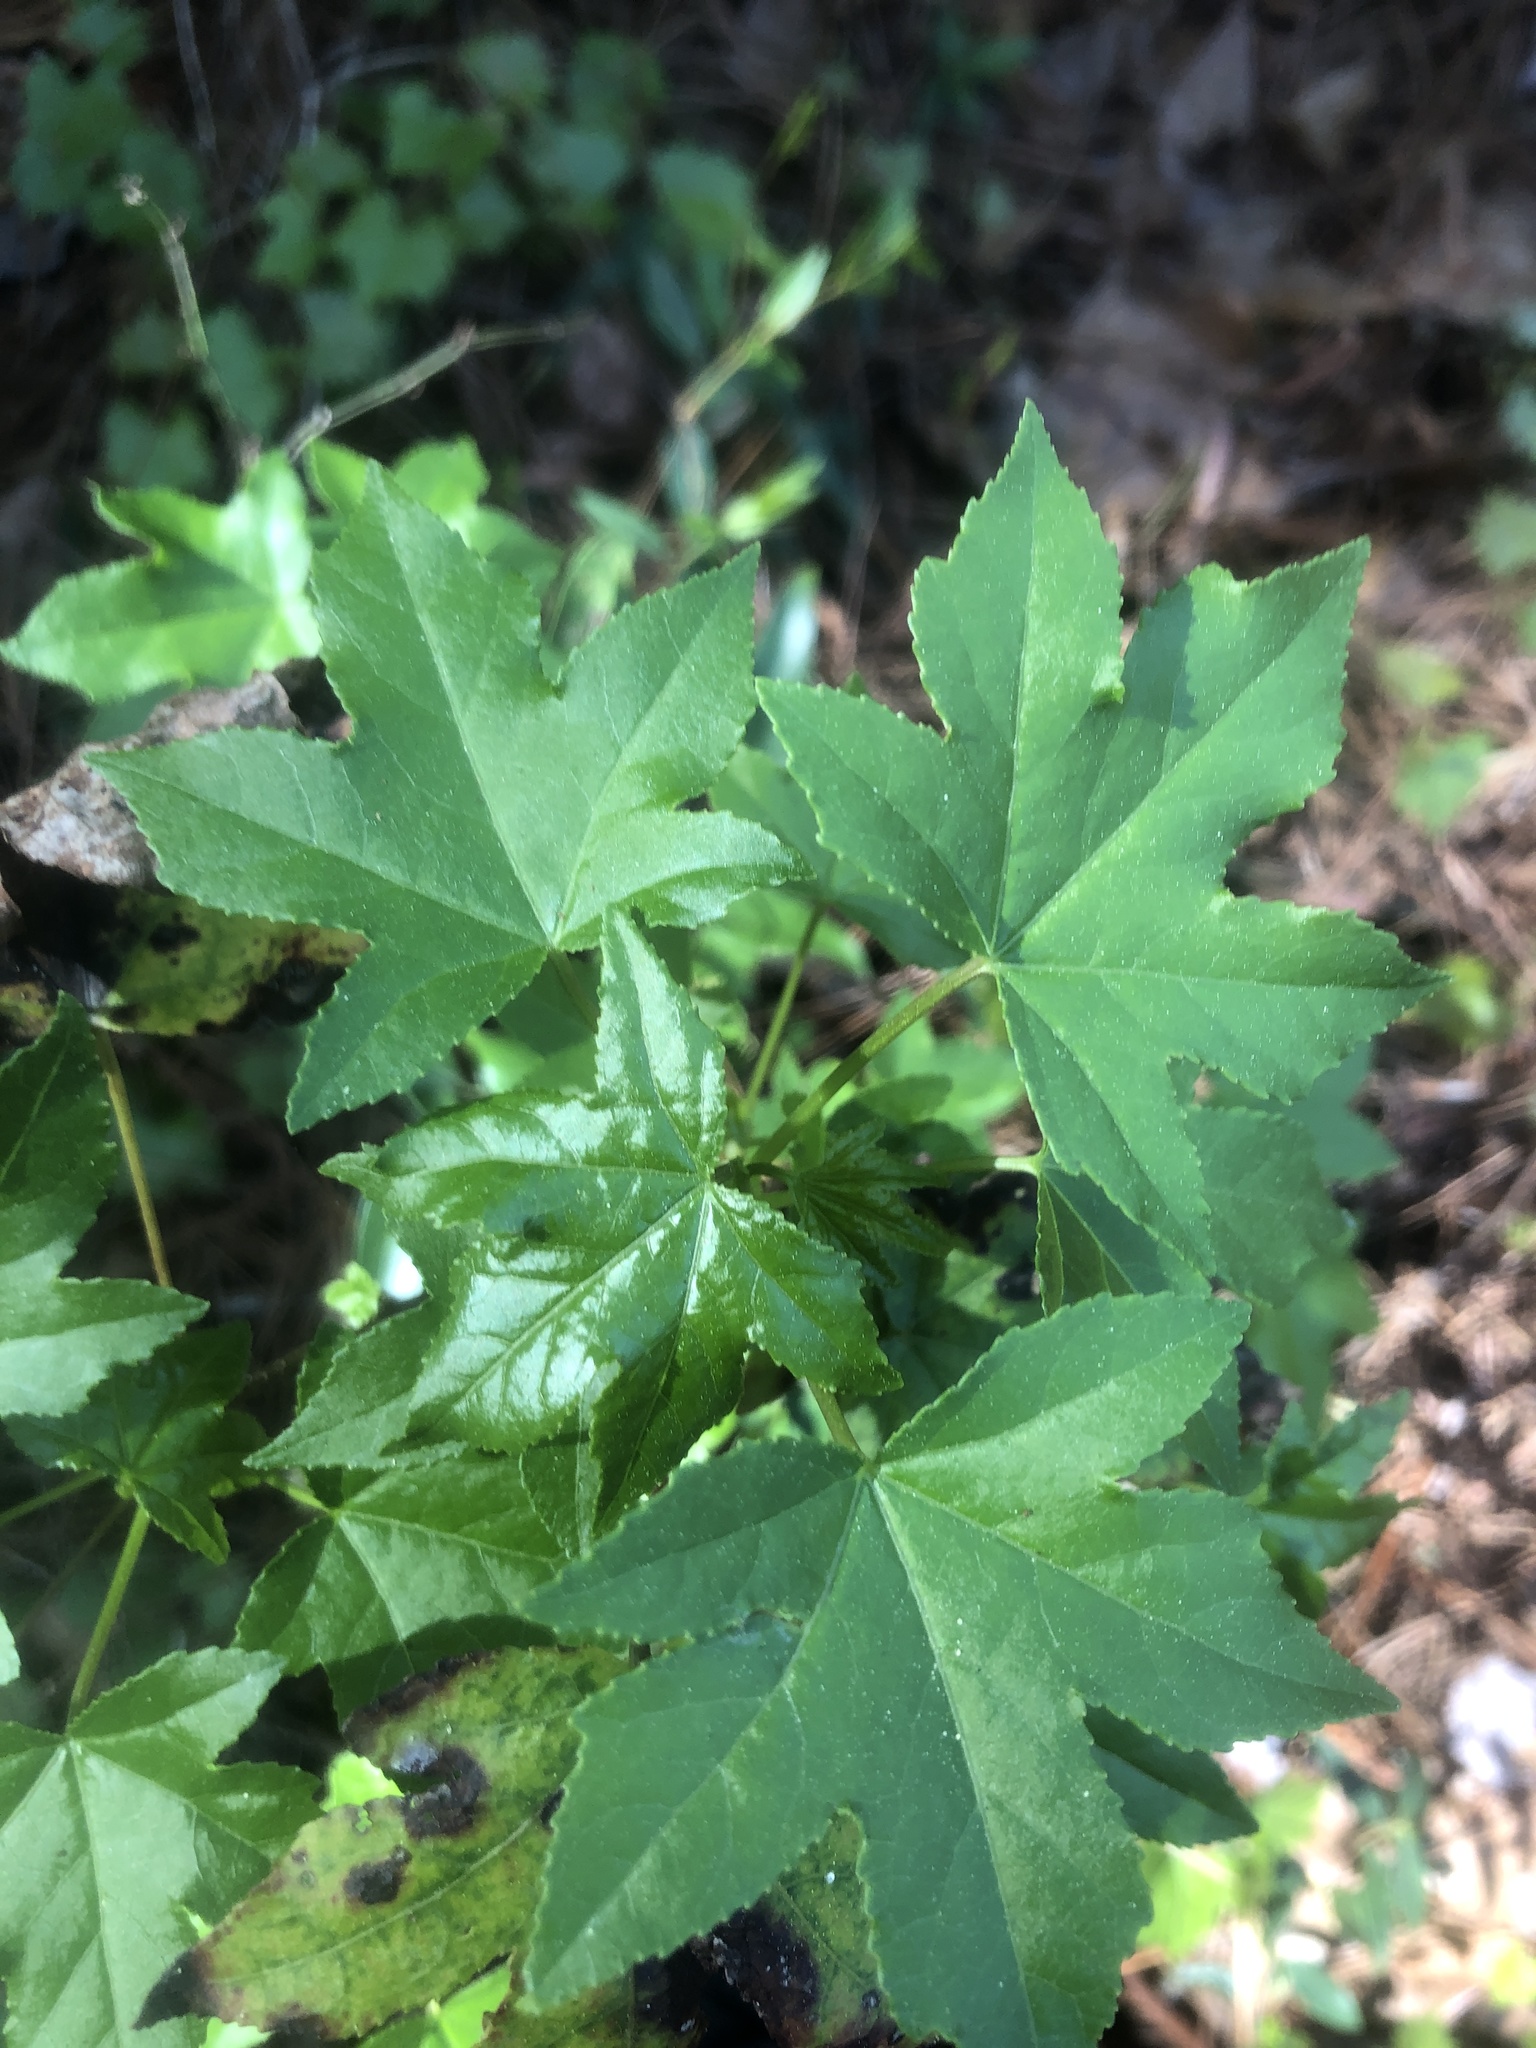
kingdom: Plantae
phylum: Tracheophyta
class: Magnoliopsida
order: Saxifragales
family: Altingiaceae
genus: Liquidambar
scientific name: Liquidambar styraciflua
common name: Sweet gum
